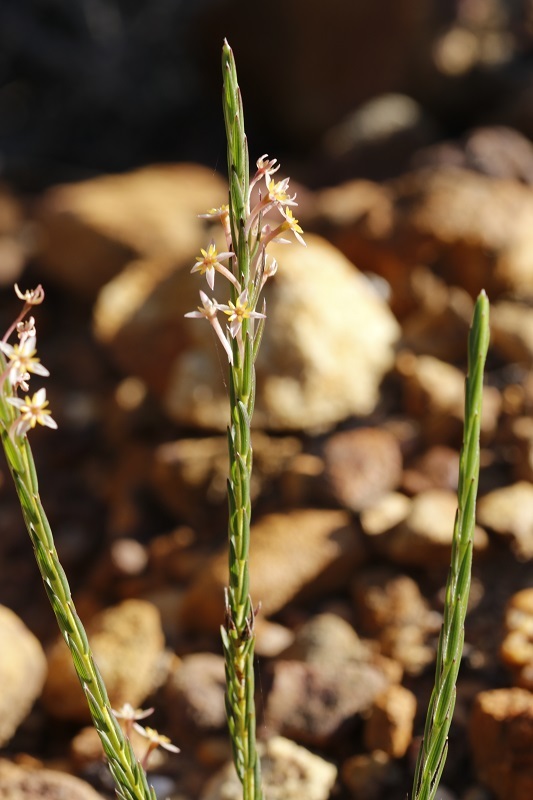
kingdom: Plantae
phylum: Tracheophyta
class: Magnoliopsida
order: Malvales
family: Thymelaeaceae
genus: Struthiola
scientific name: Struthiola ciliata
